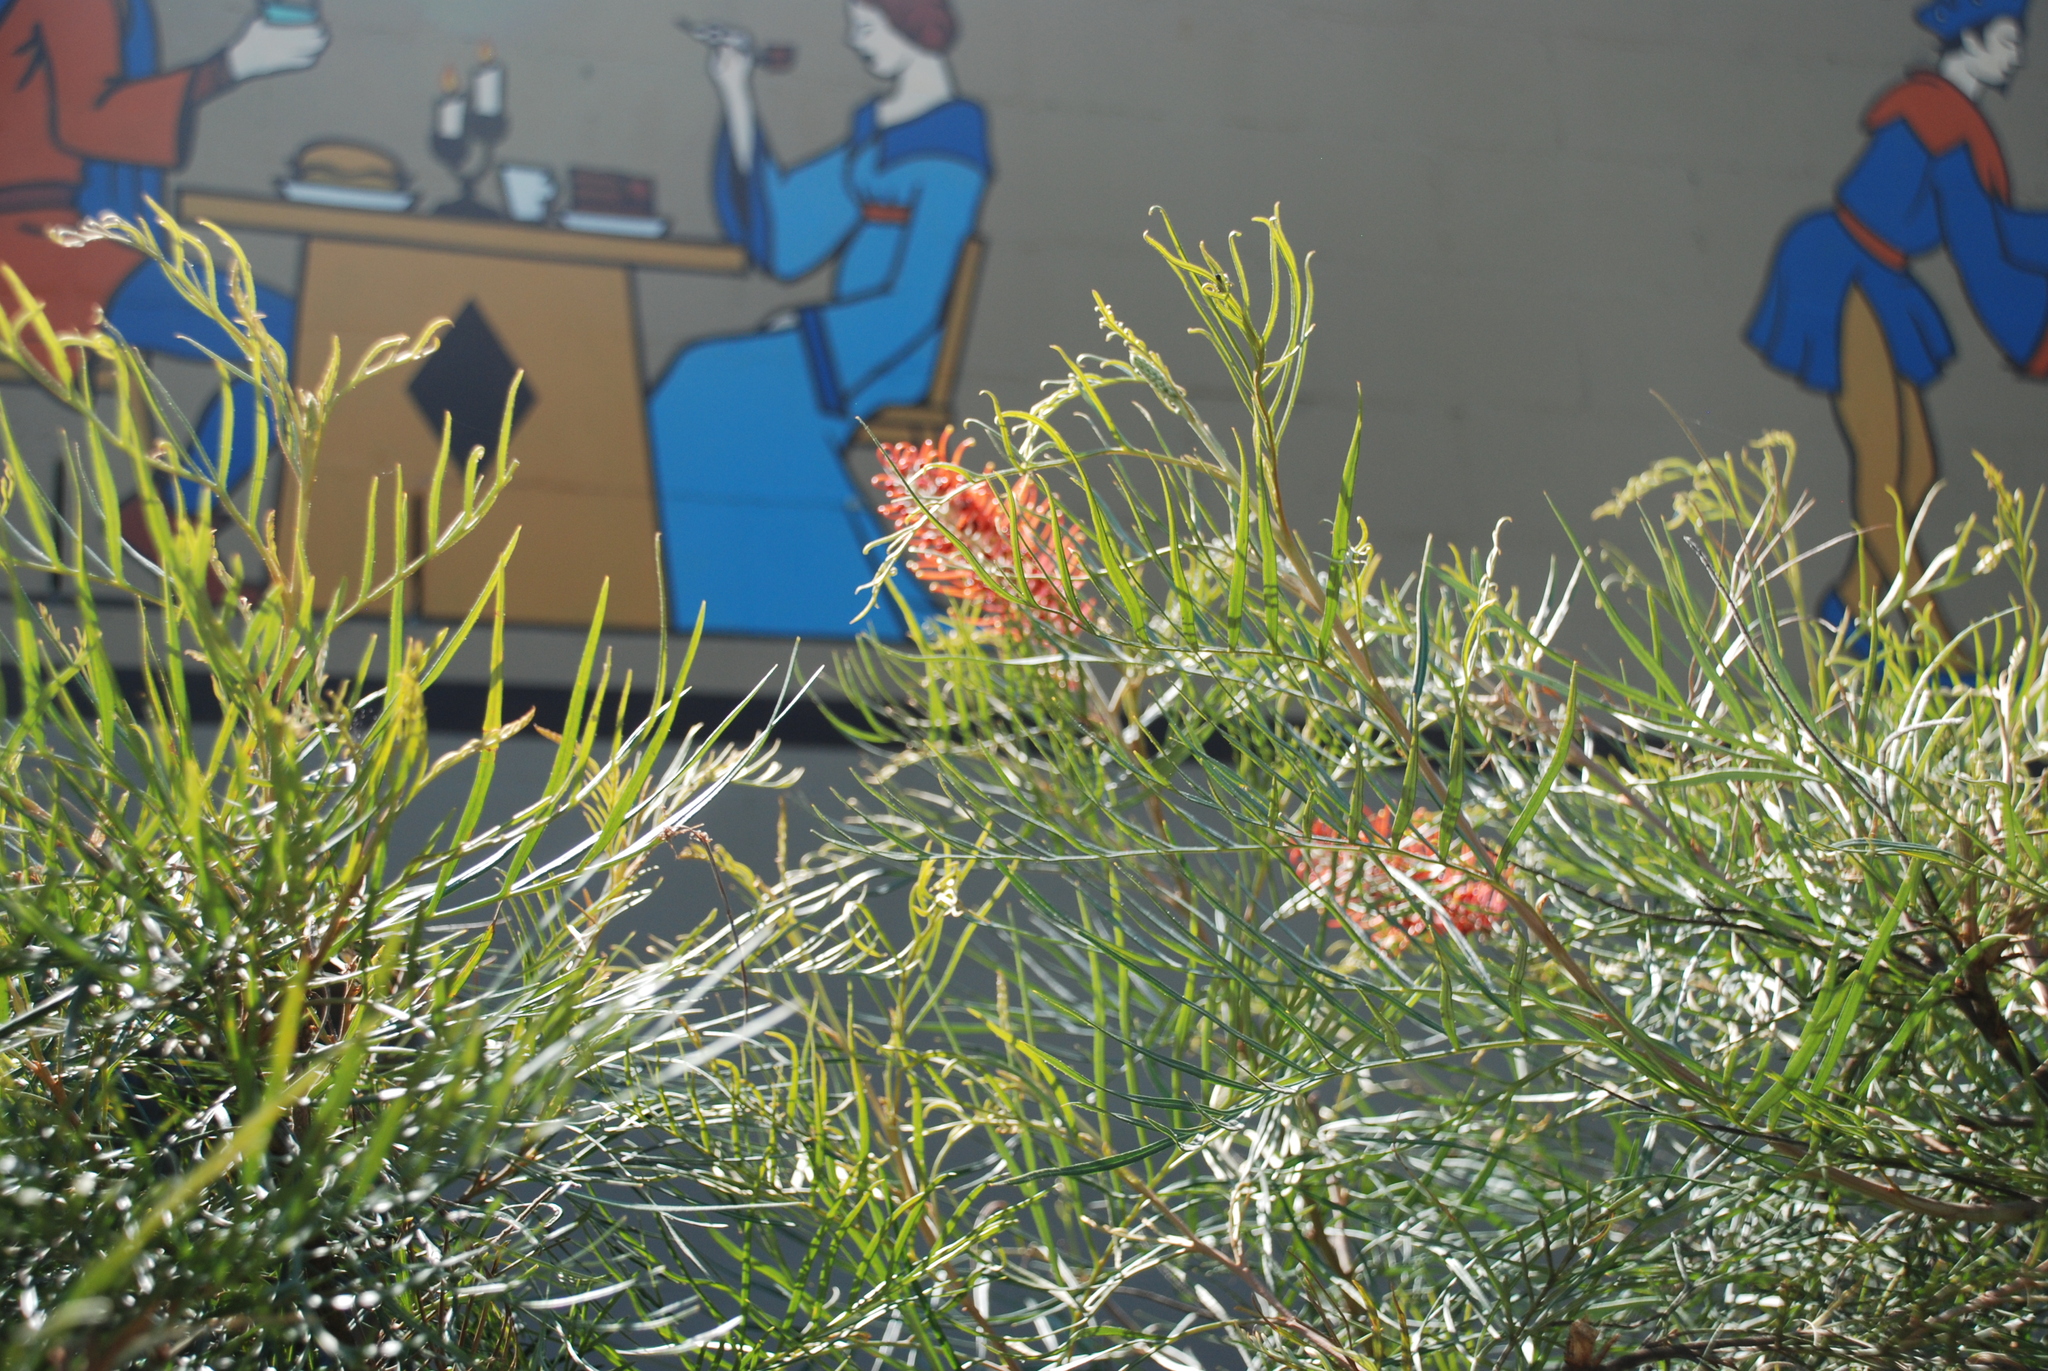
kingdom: Plantae
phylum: Tracheophyta
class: Magnoliopsida
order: Proteales
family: Proteaceae
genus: Grevillea
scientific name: Grevillea banksii
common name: Kahili flower
